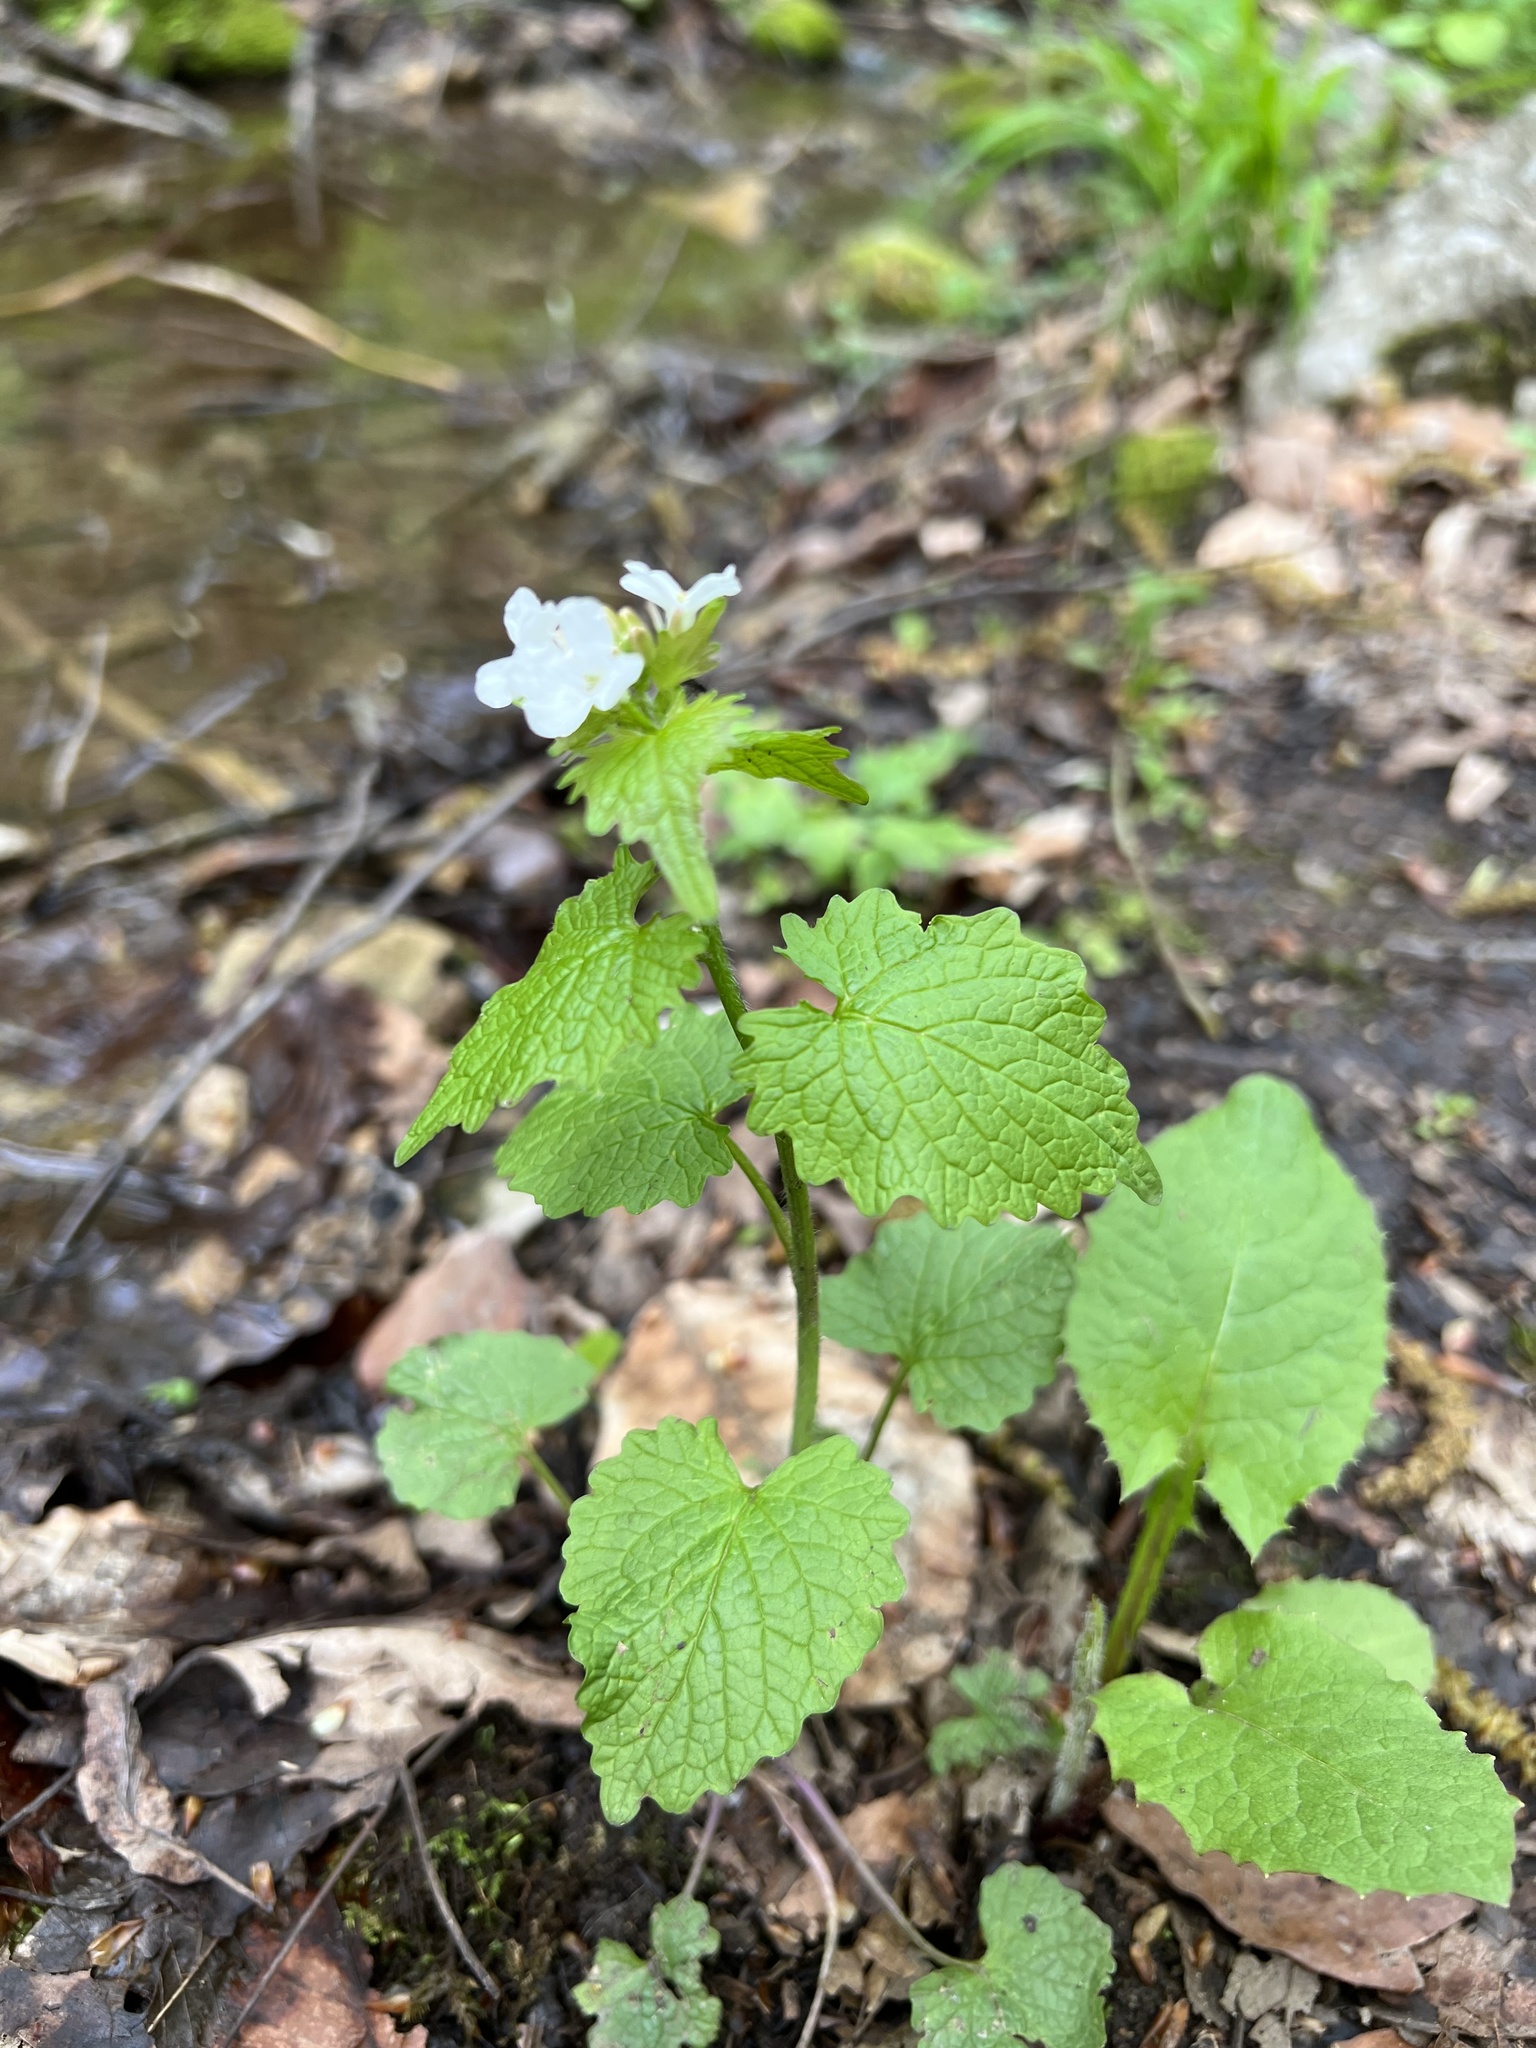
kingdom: Plantae
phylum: Tracheophyta
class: Magnoliopsida
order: Brassicales
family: Brassicaceae
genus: Alliaria
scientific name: Alliaria petiolata
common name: Garlic mustard
